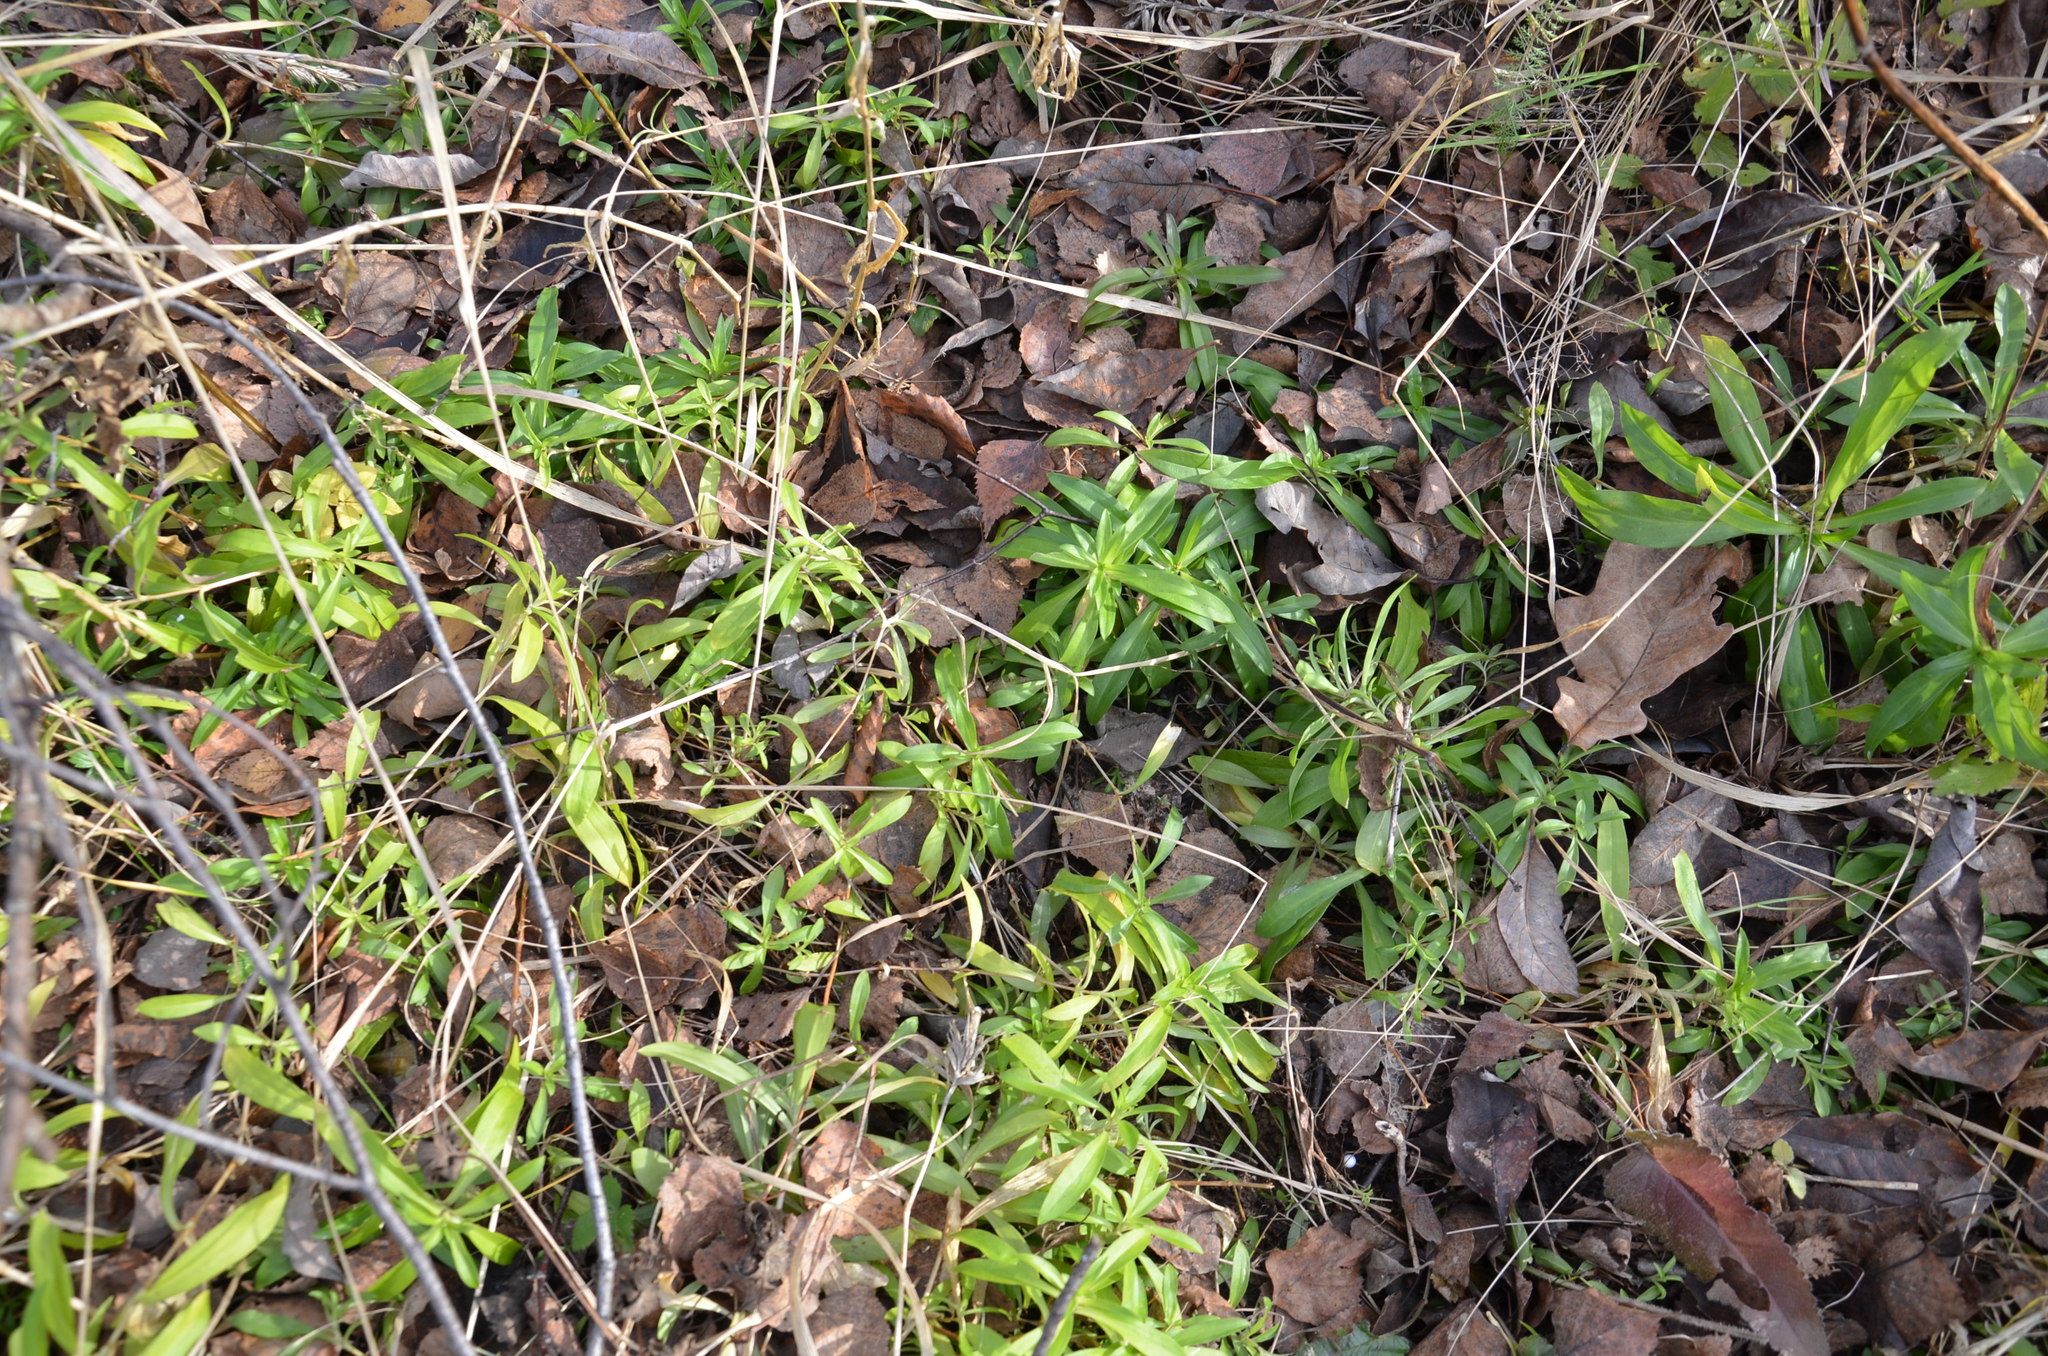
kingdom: Plantae
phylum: Tracheophyta
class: Magnoliopsida
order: Caryophyllales
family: Caryophyllaceae
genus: Dianthus
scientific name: Dianthus barbatus
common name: Sweet-william
